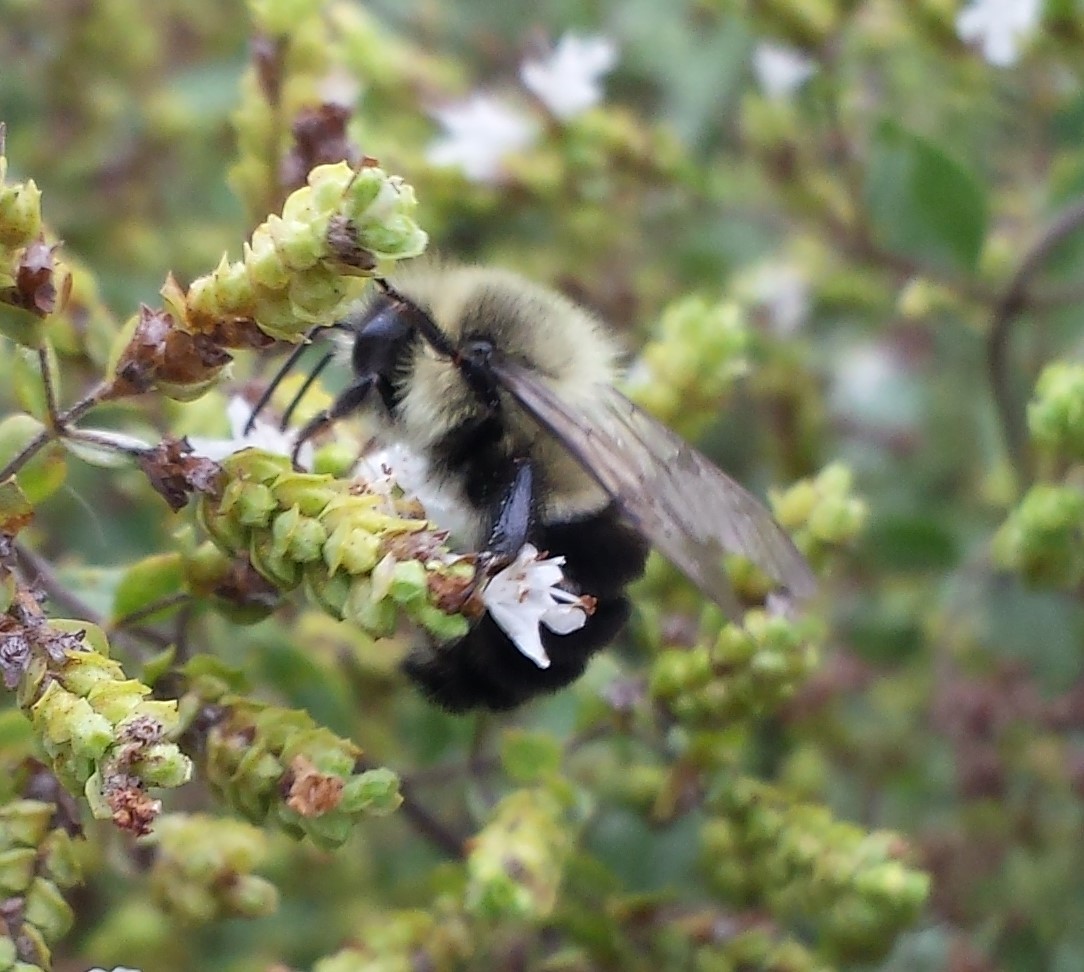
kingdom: Animalia
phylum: Arthropoda
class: Insecta
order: Hymenoptera
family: Apidae
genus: Bombus
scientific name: Bombus impatiens
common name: Common eastern bumble bee
